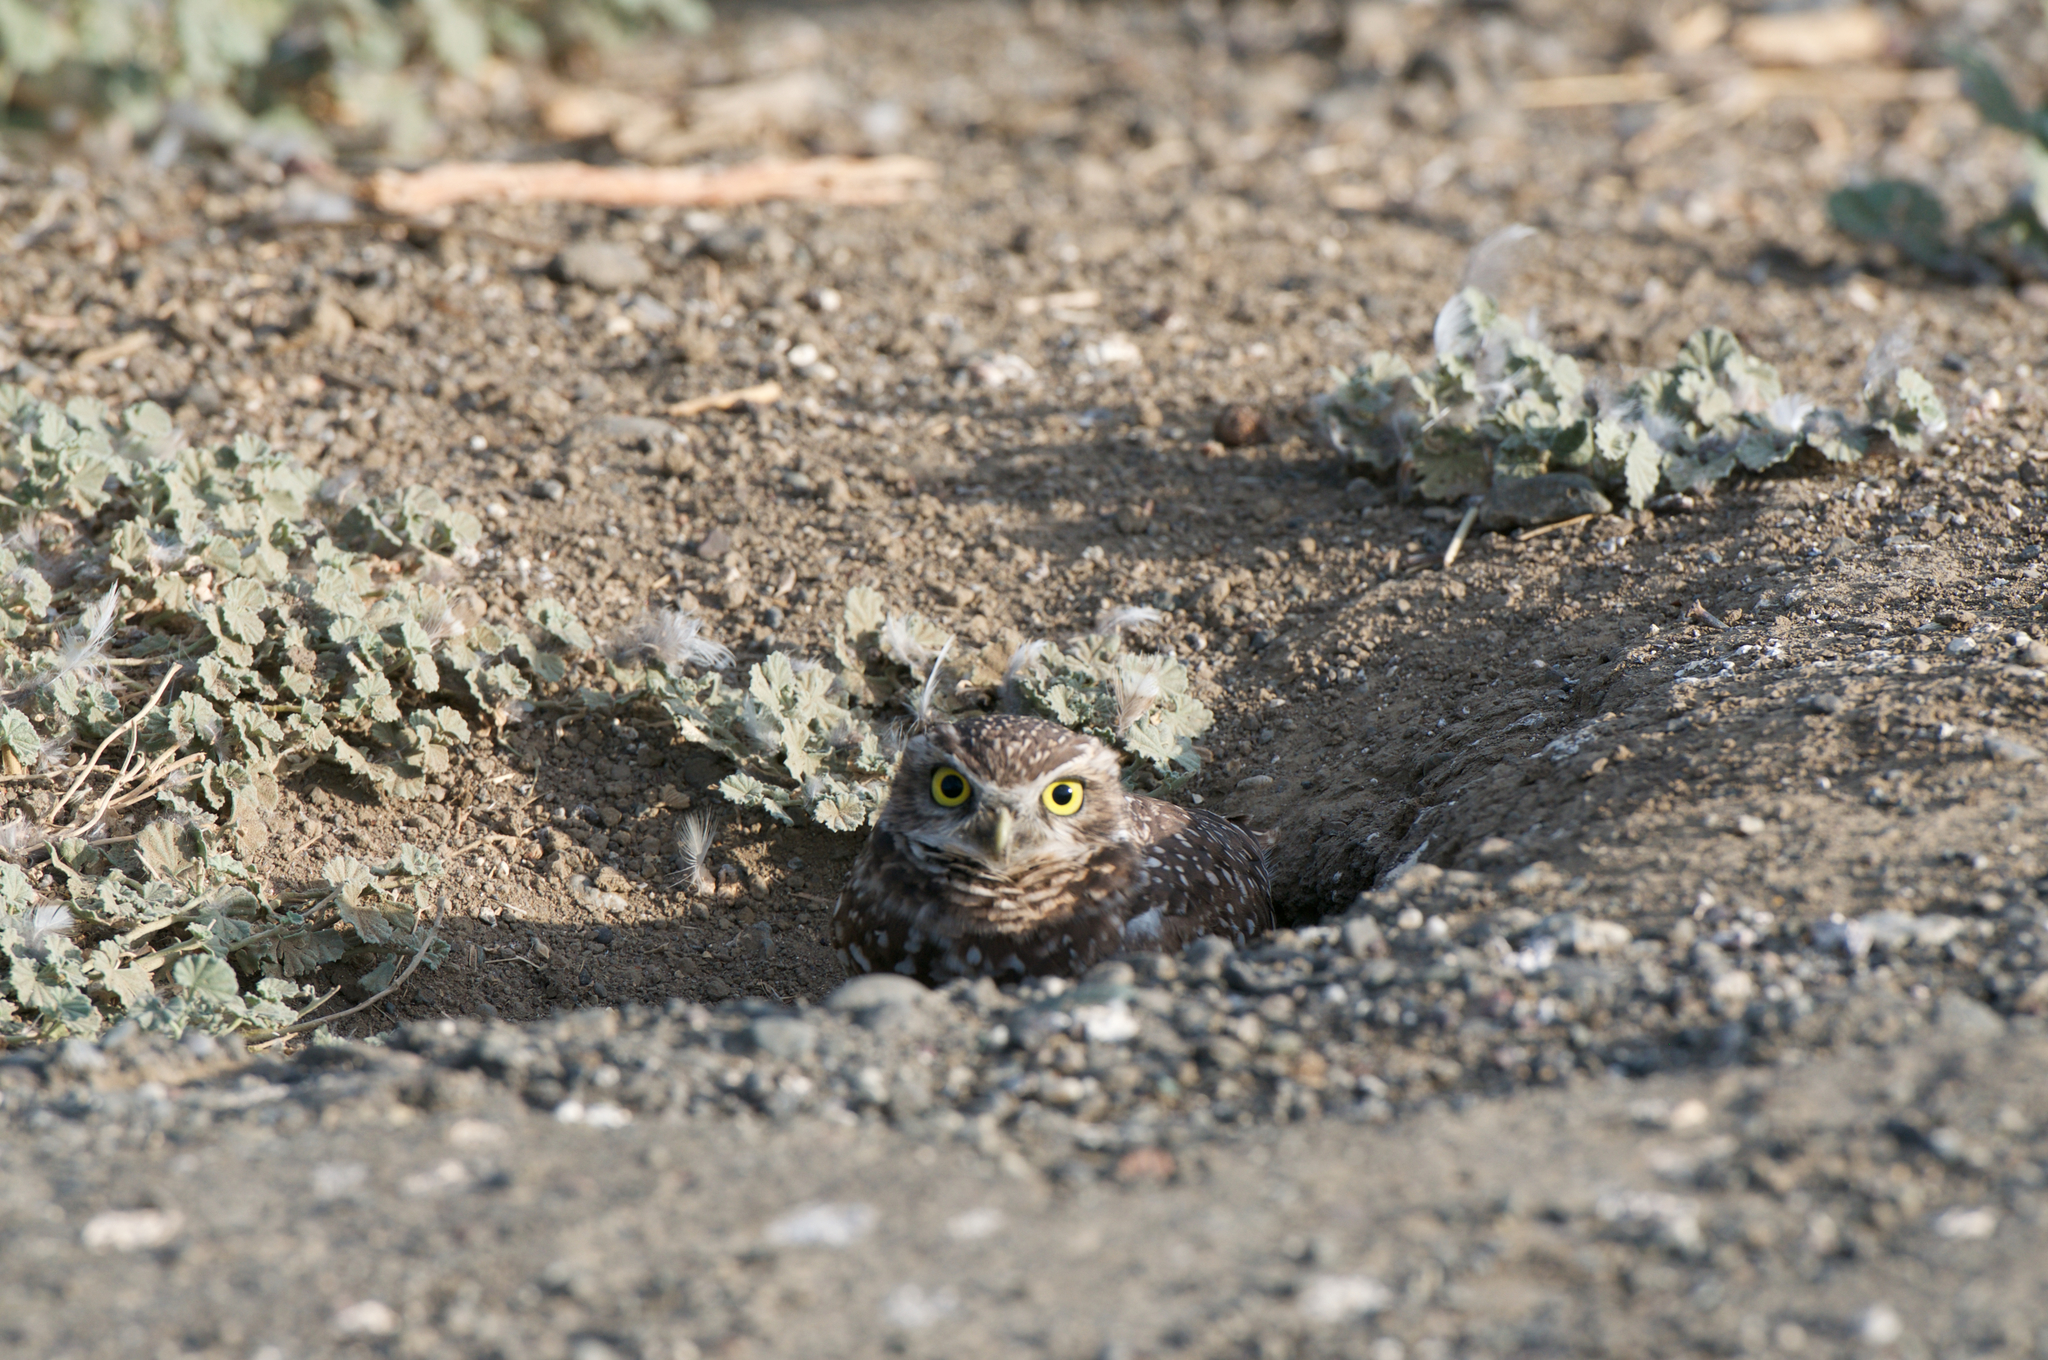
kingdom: Animalia
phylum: Chordata
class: Aves
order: Strigiformes
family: Strigidae
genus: Athene
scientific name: Athene cunicularia
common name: Burrowing owl
